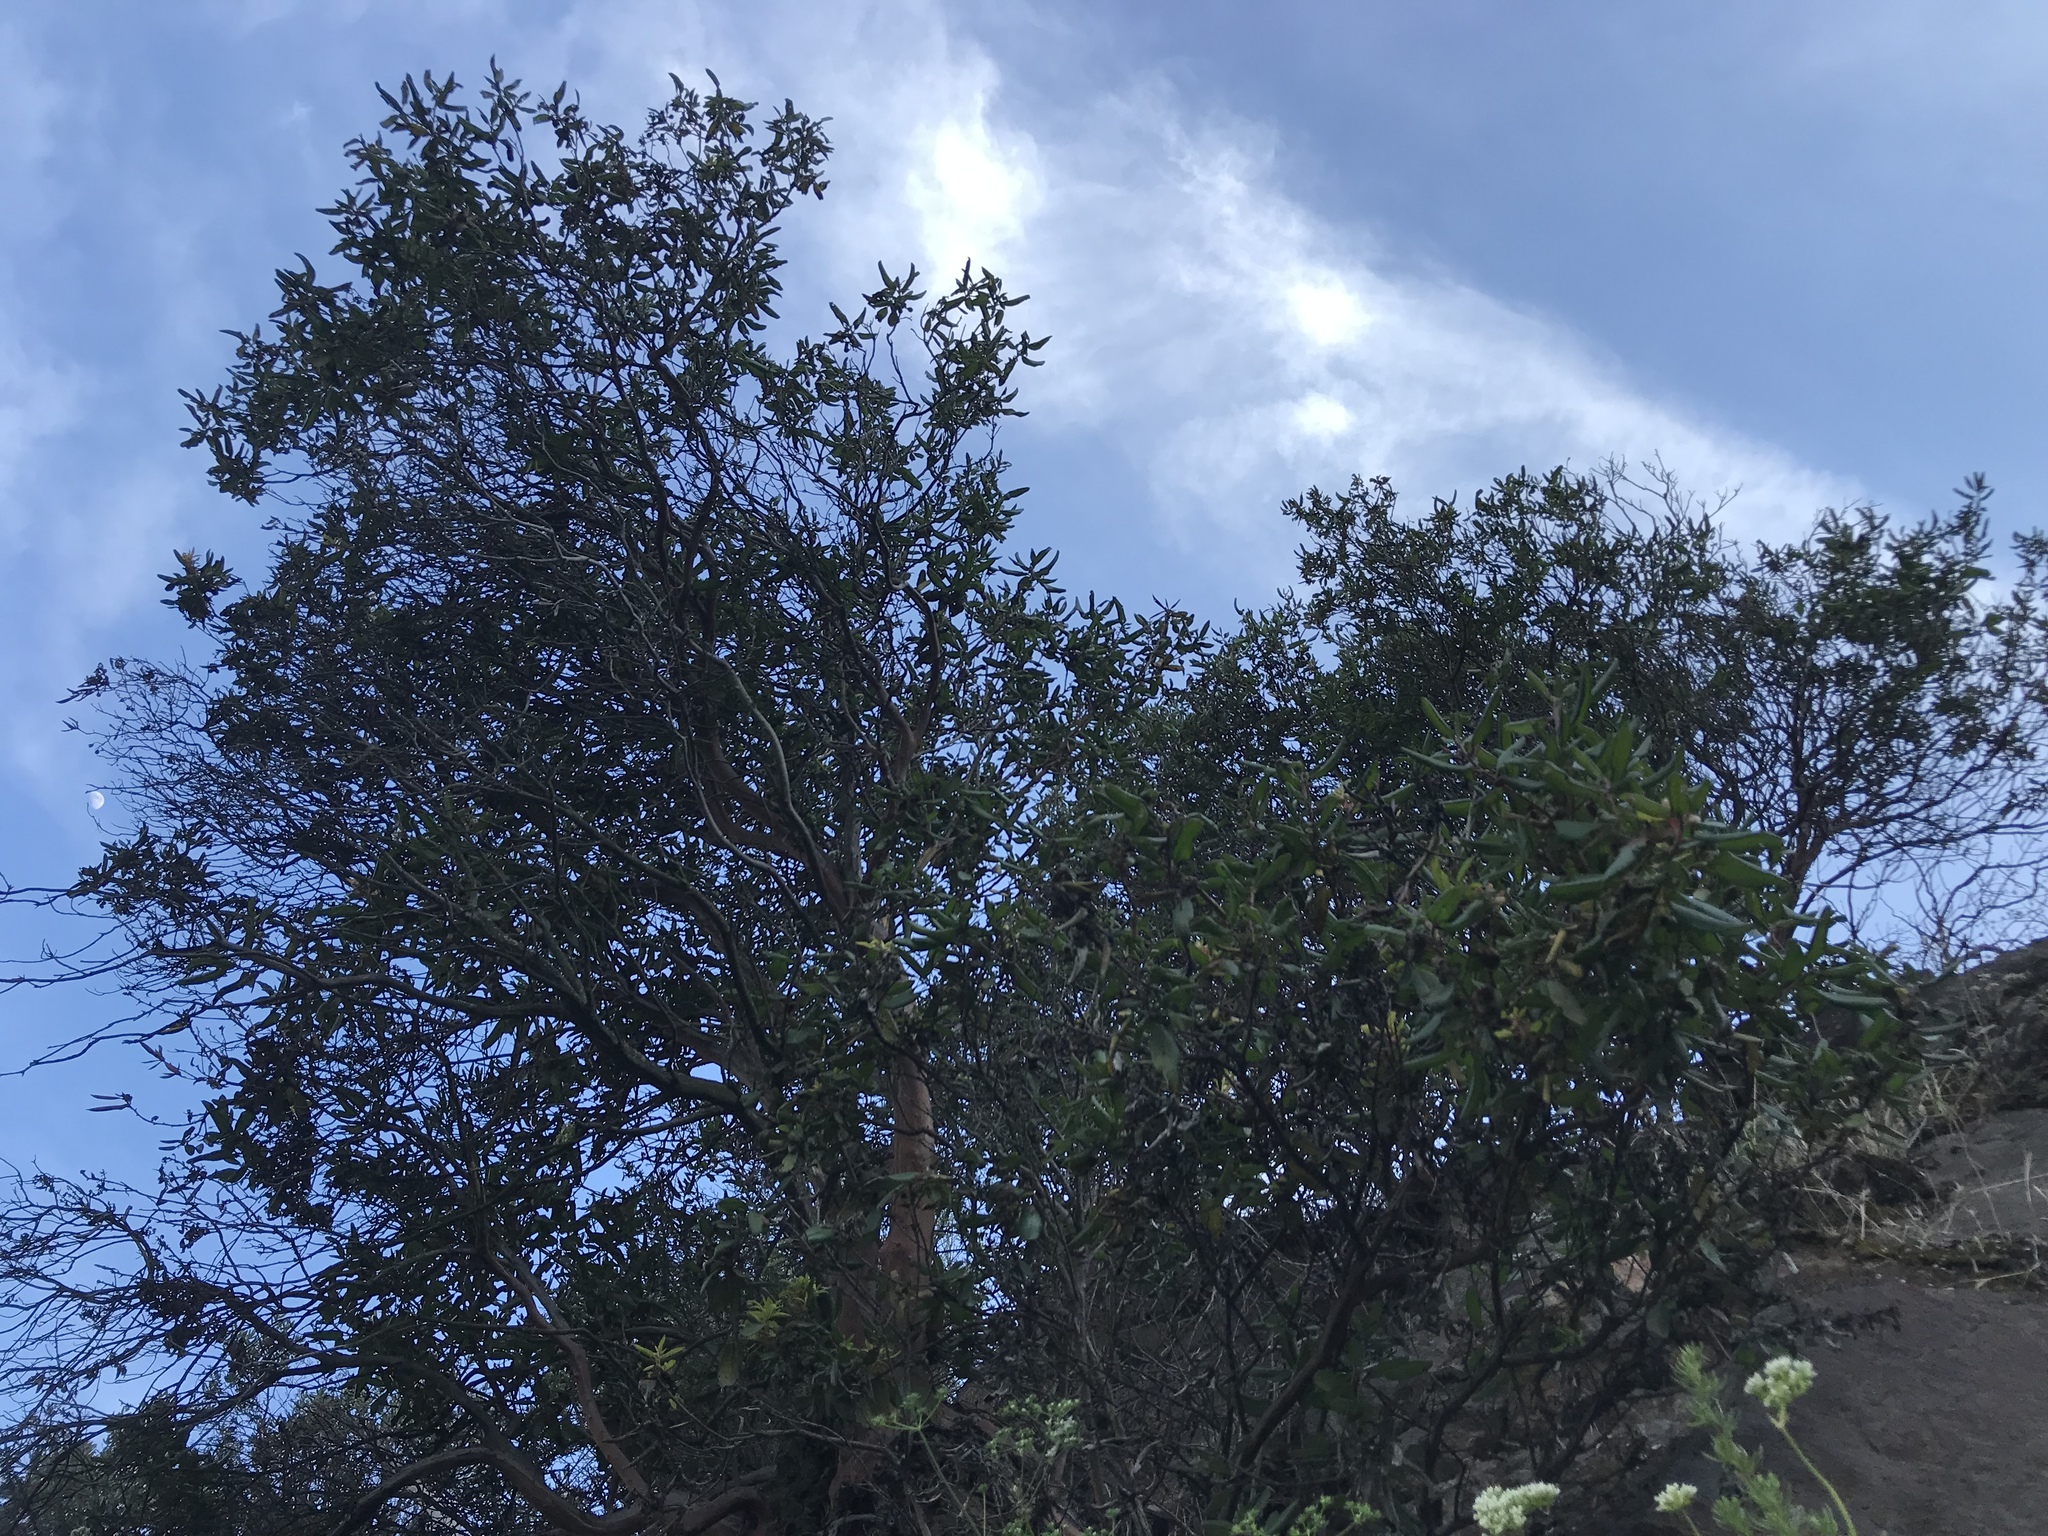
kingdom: Plantae
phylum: Tracheophyta
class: Magnoliopsida
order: Ericales
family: Ericaceae
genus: Arctostaphylos
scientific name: Arctostaphylos bicolor
